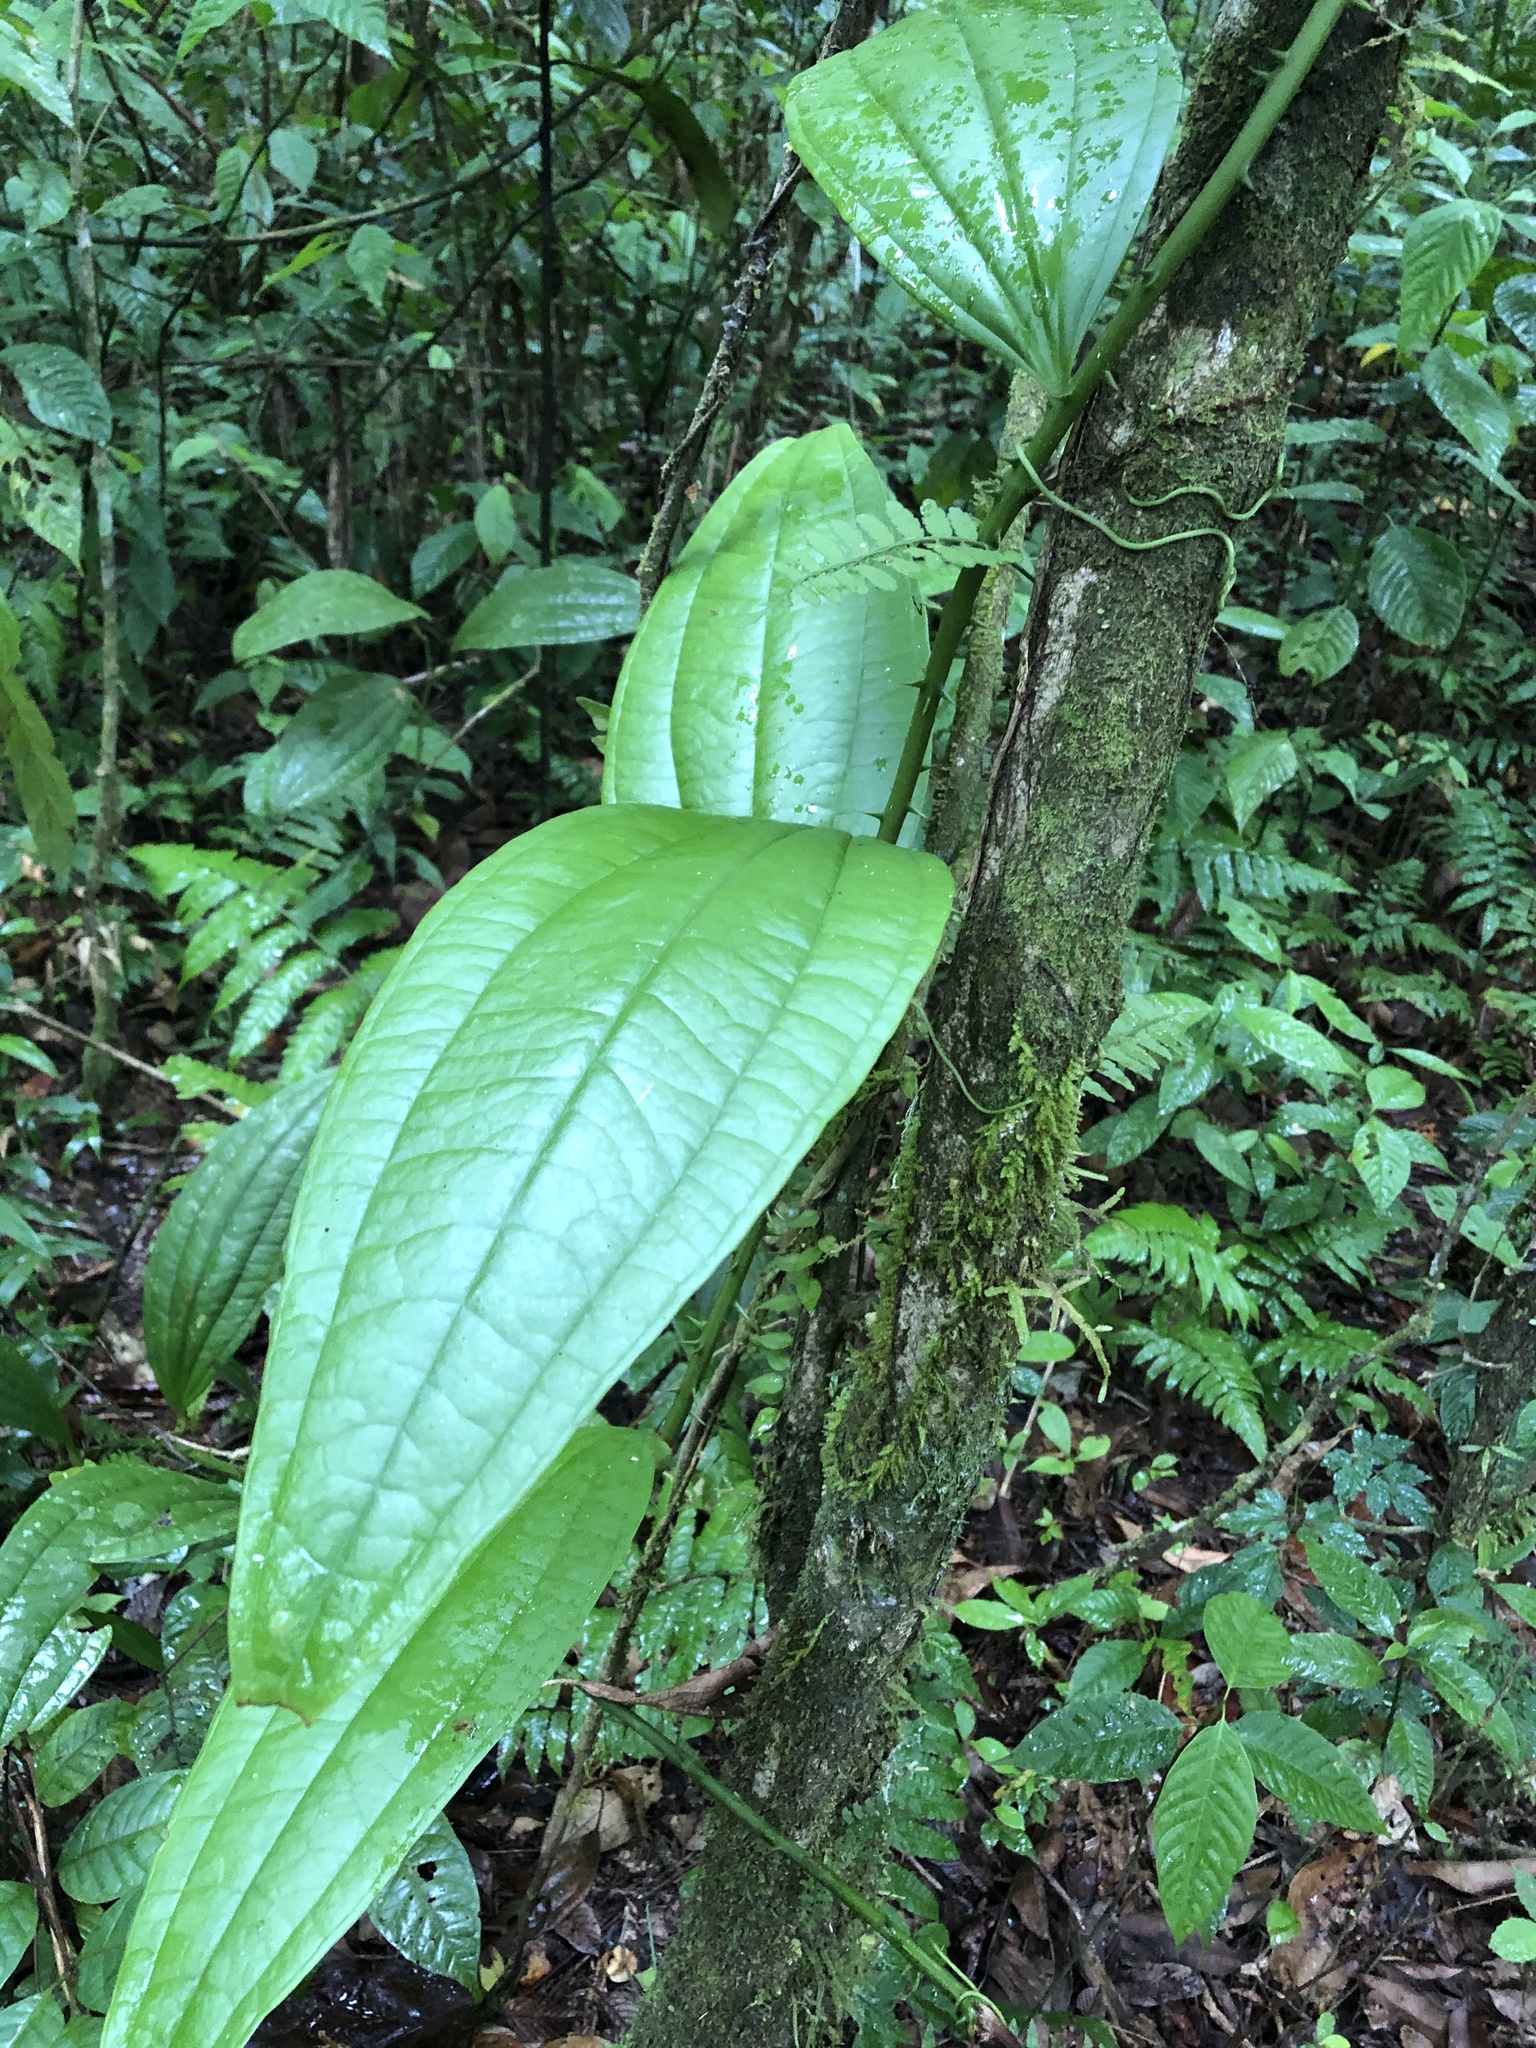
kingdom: Plantae
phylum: Tracheophyta
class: Liliopsida
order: Liliales
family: Smilacaceae
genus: Smilax
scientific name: Smilax siphilitica
